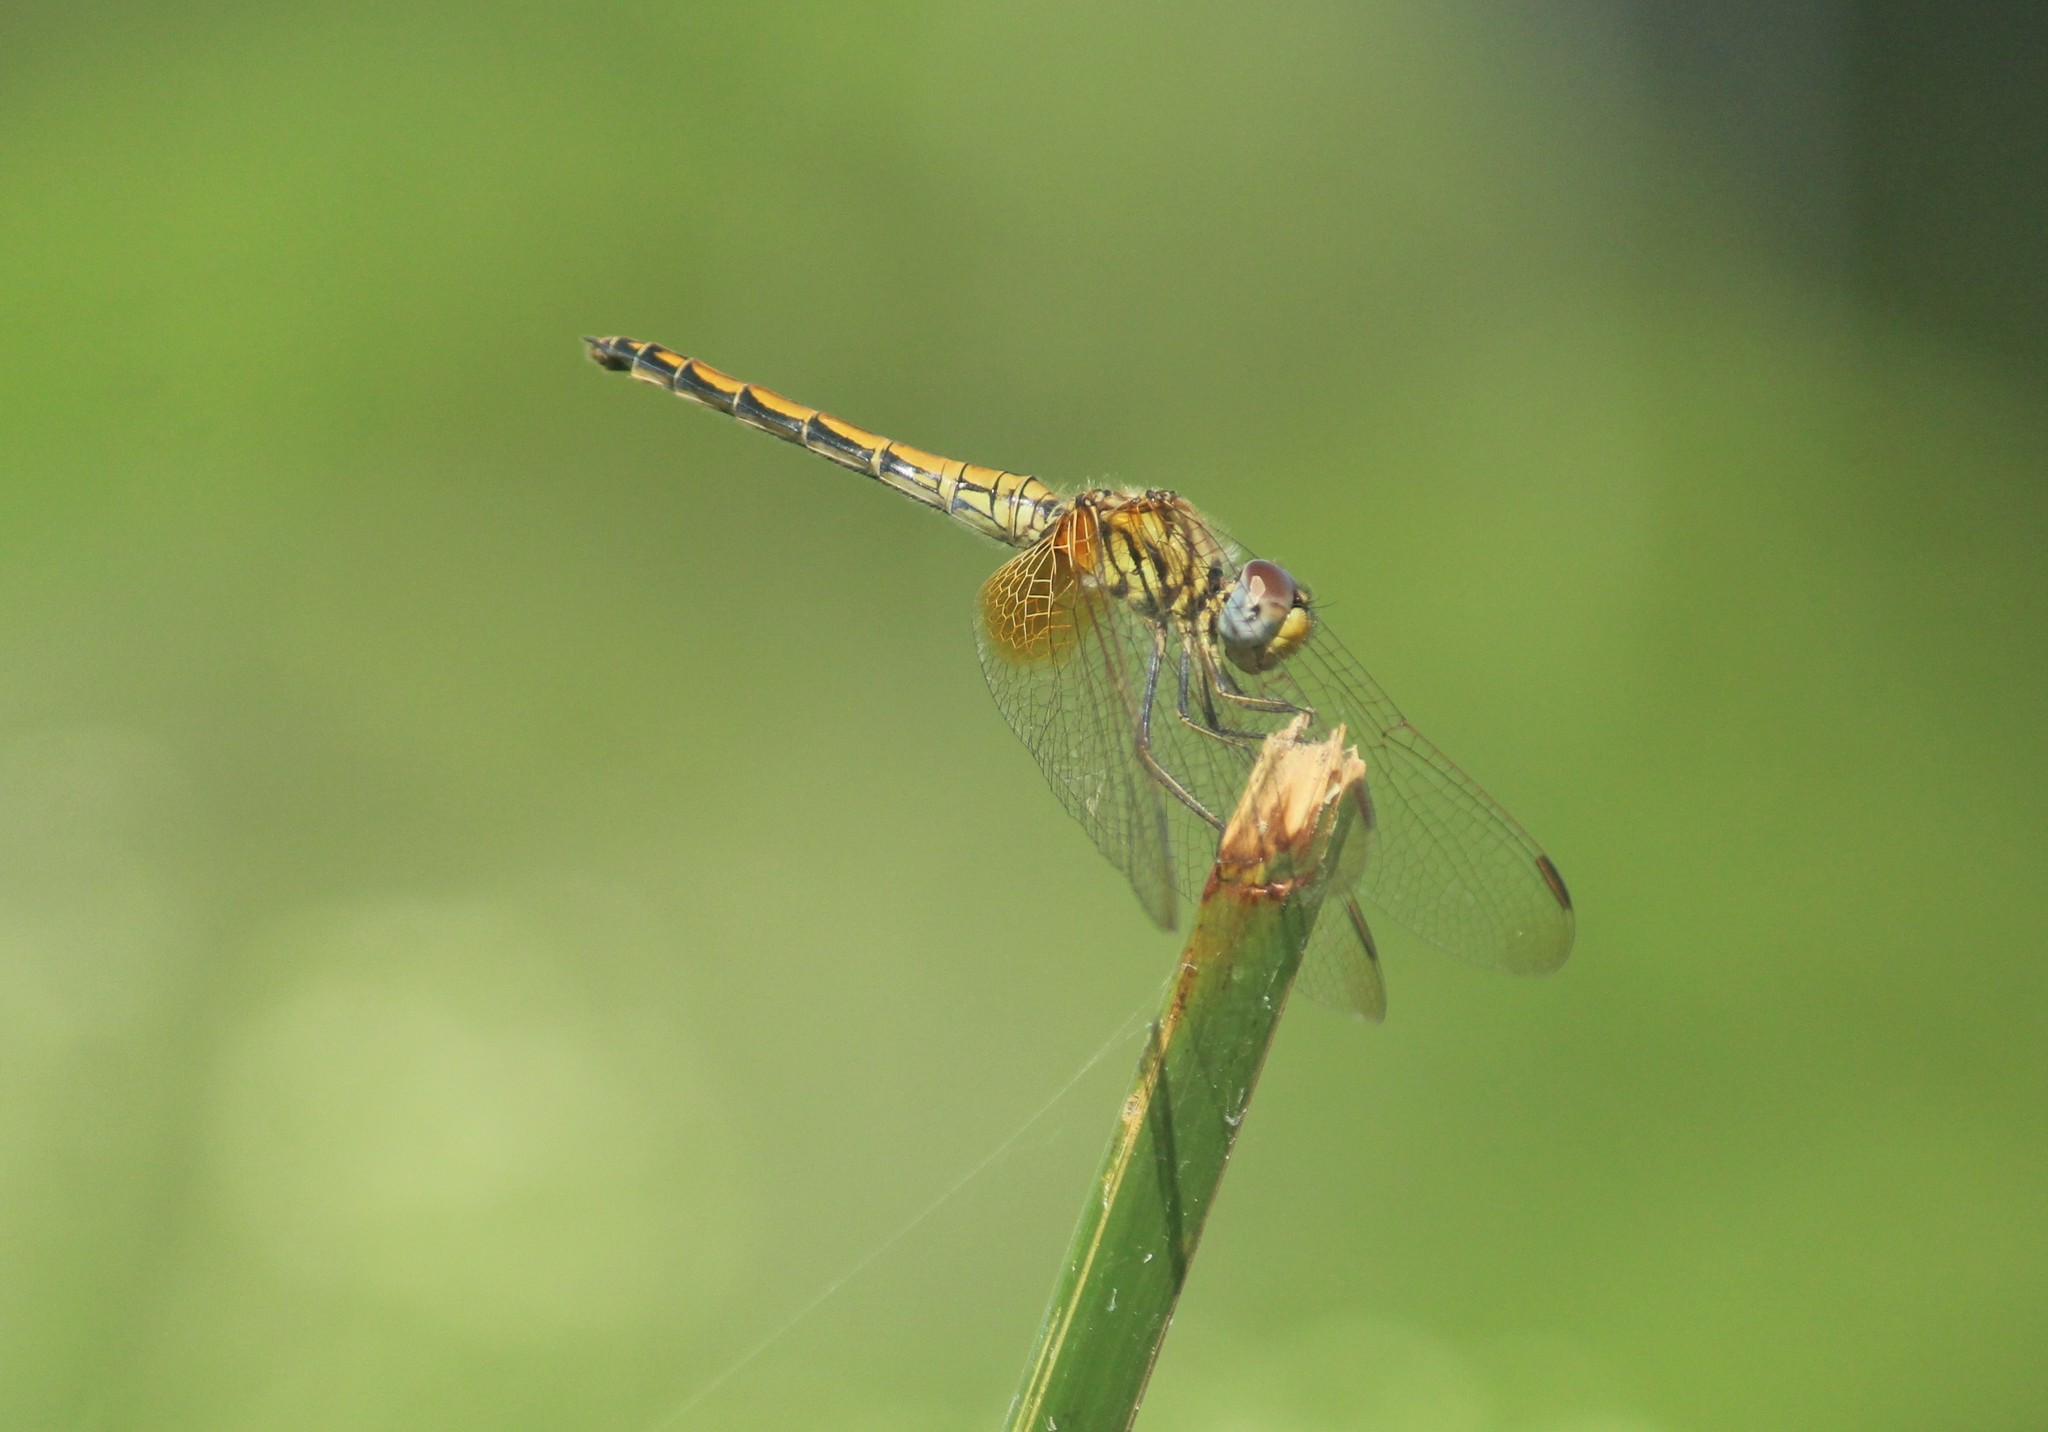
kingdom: Animalia
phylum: Arthropoda
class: Insecta
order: Odonata
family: Libellulidae
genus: Trithemis
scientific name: Trithemis aurora
